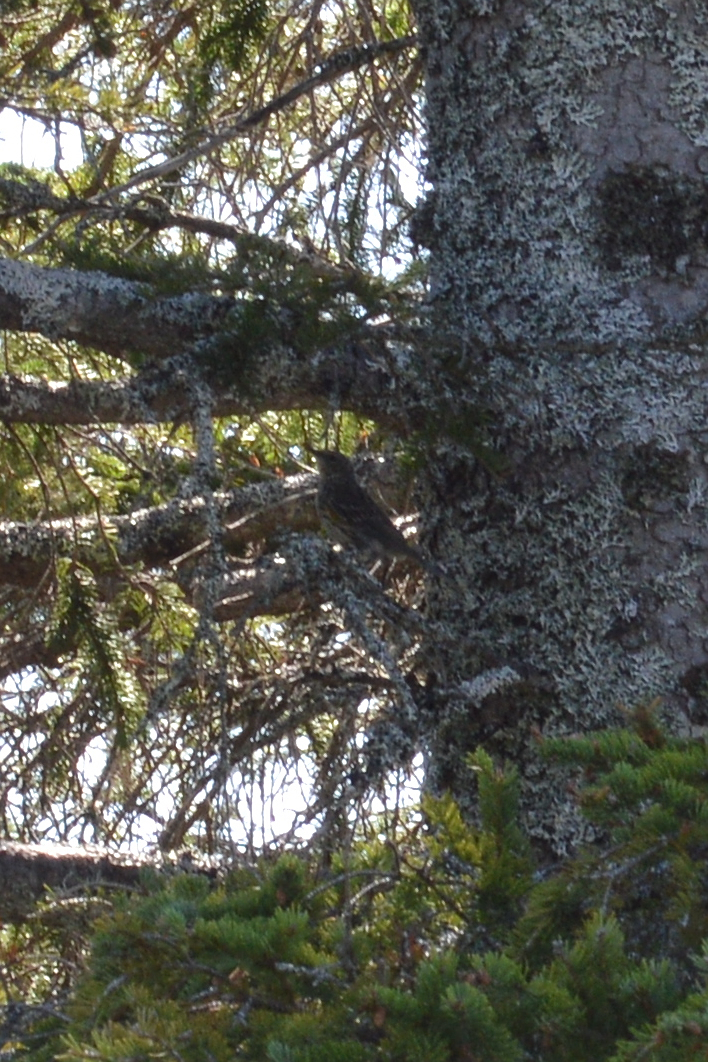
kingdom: Animalia
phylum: Chordata
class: Aves
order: Passeriformes
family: Parulidae
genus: Setophaga
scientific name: Setophaga coronata
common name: Myrtle warbler
